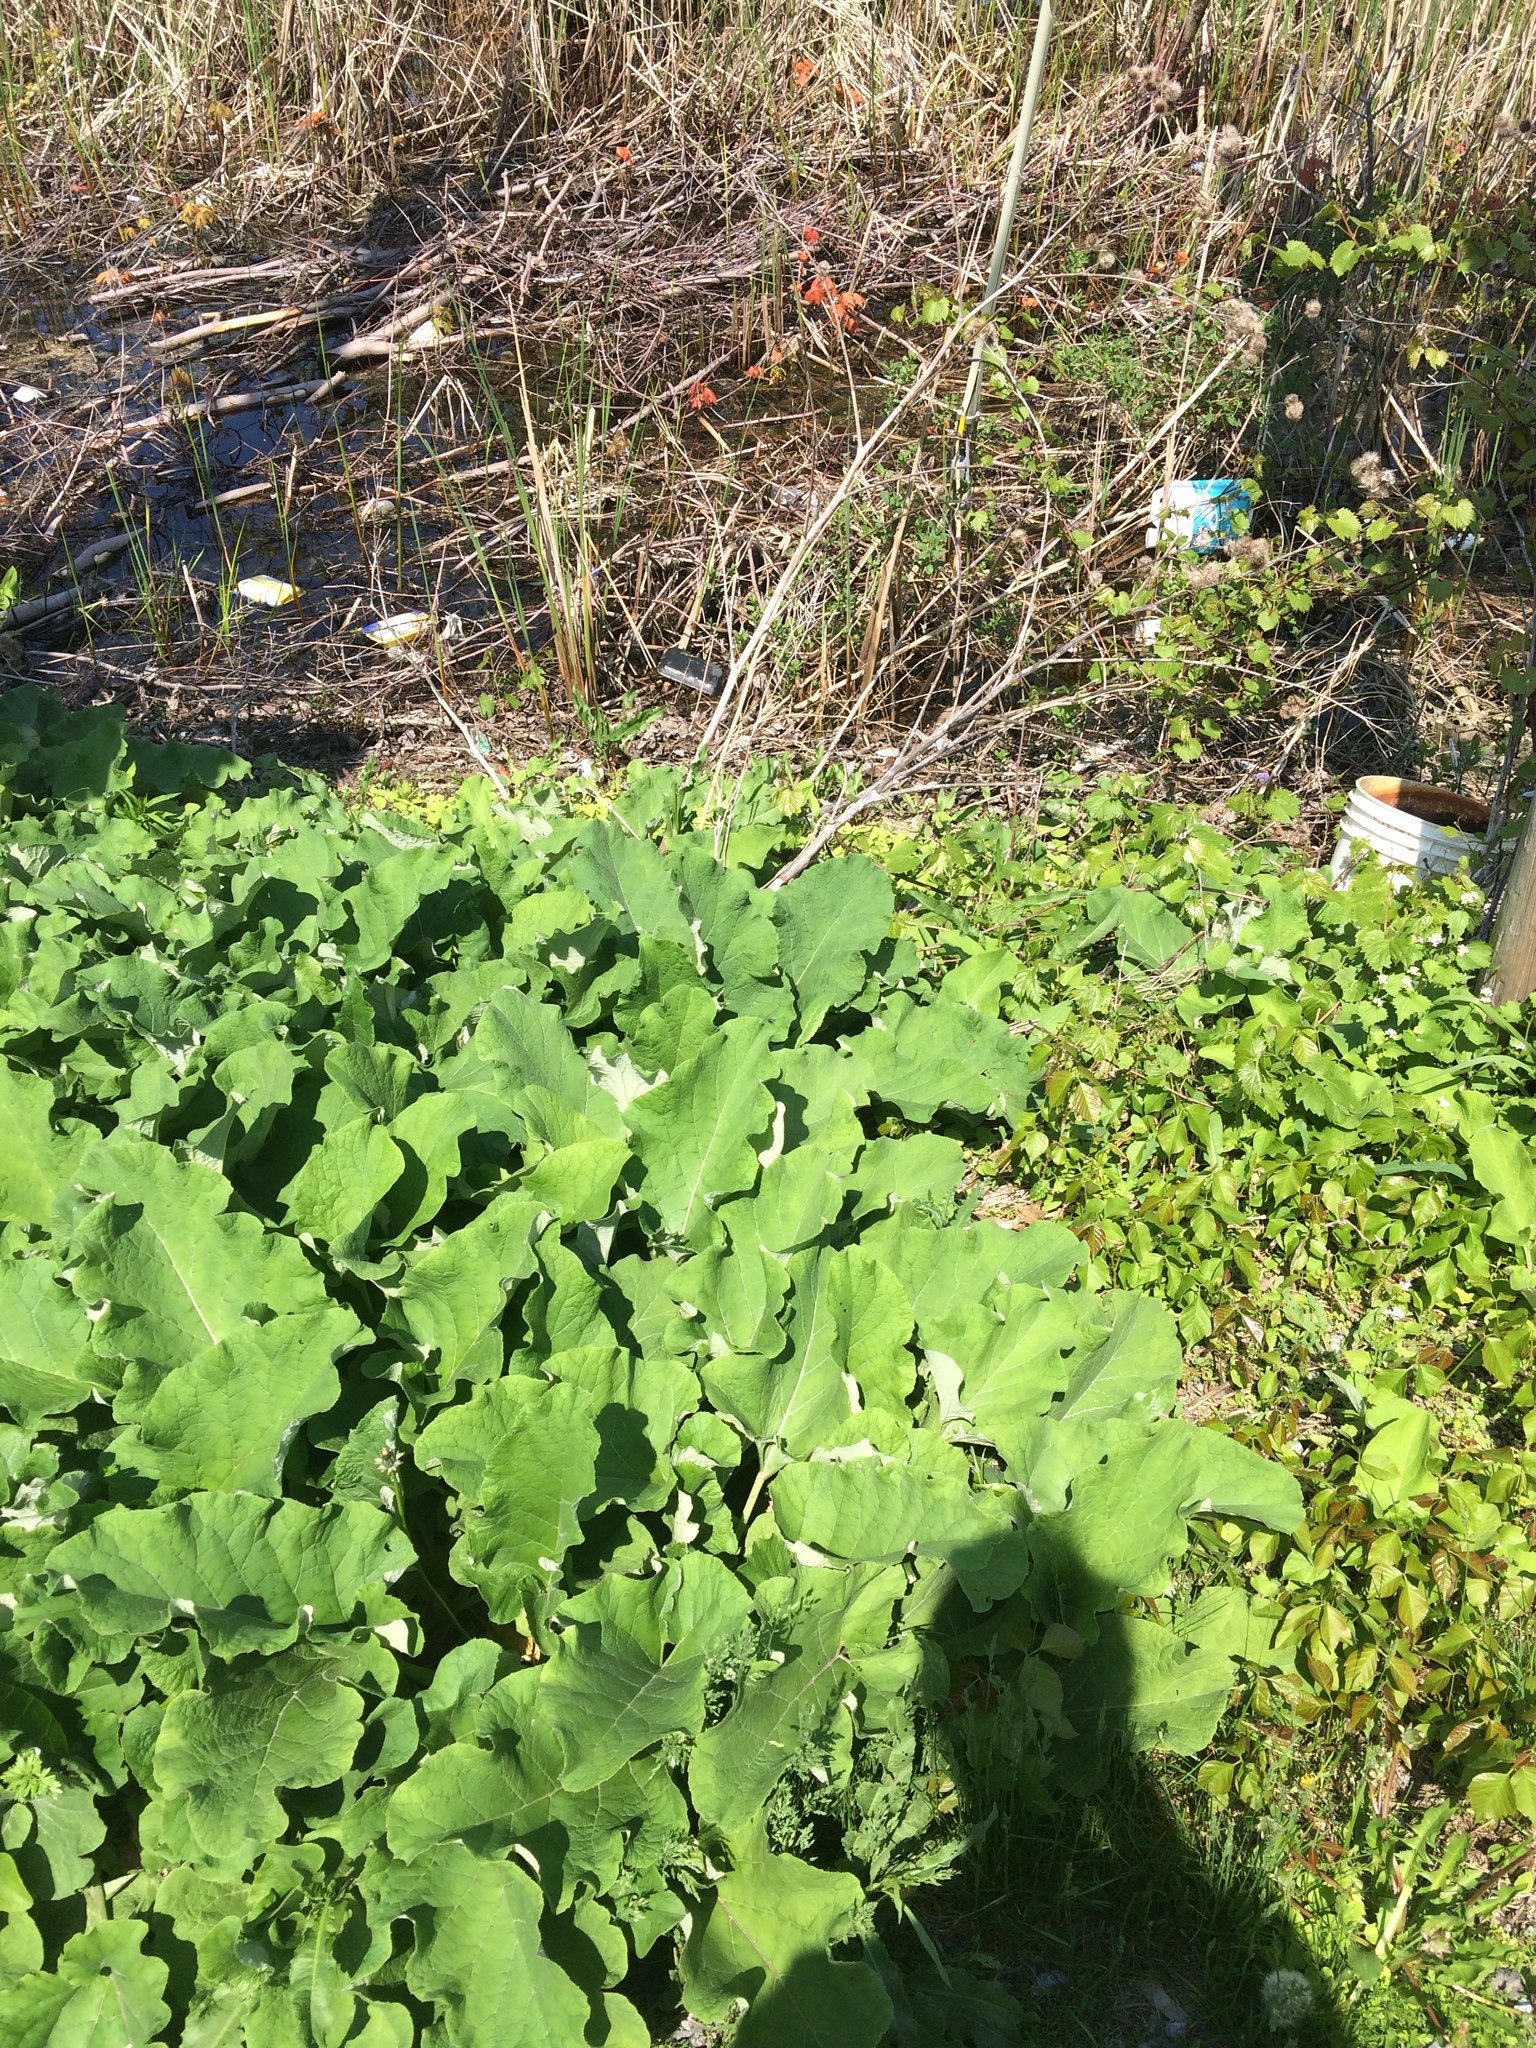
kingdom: Plantae
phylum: Tracheophyta
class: Magnoliopsida
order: Asterales
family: Asteraceae
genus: Arctium
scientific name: Arctium lappa
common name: Greater burdock
